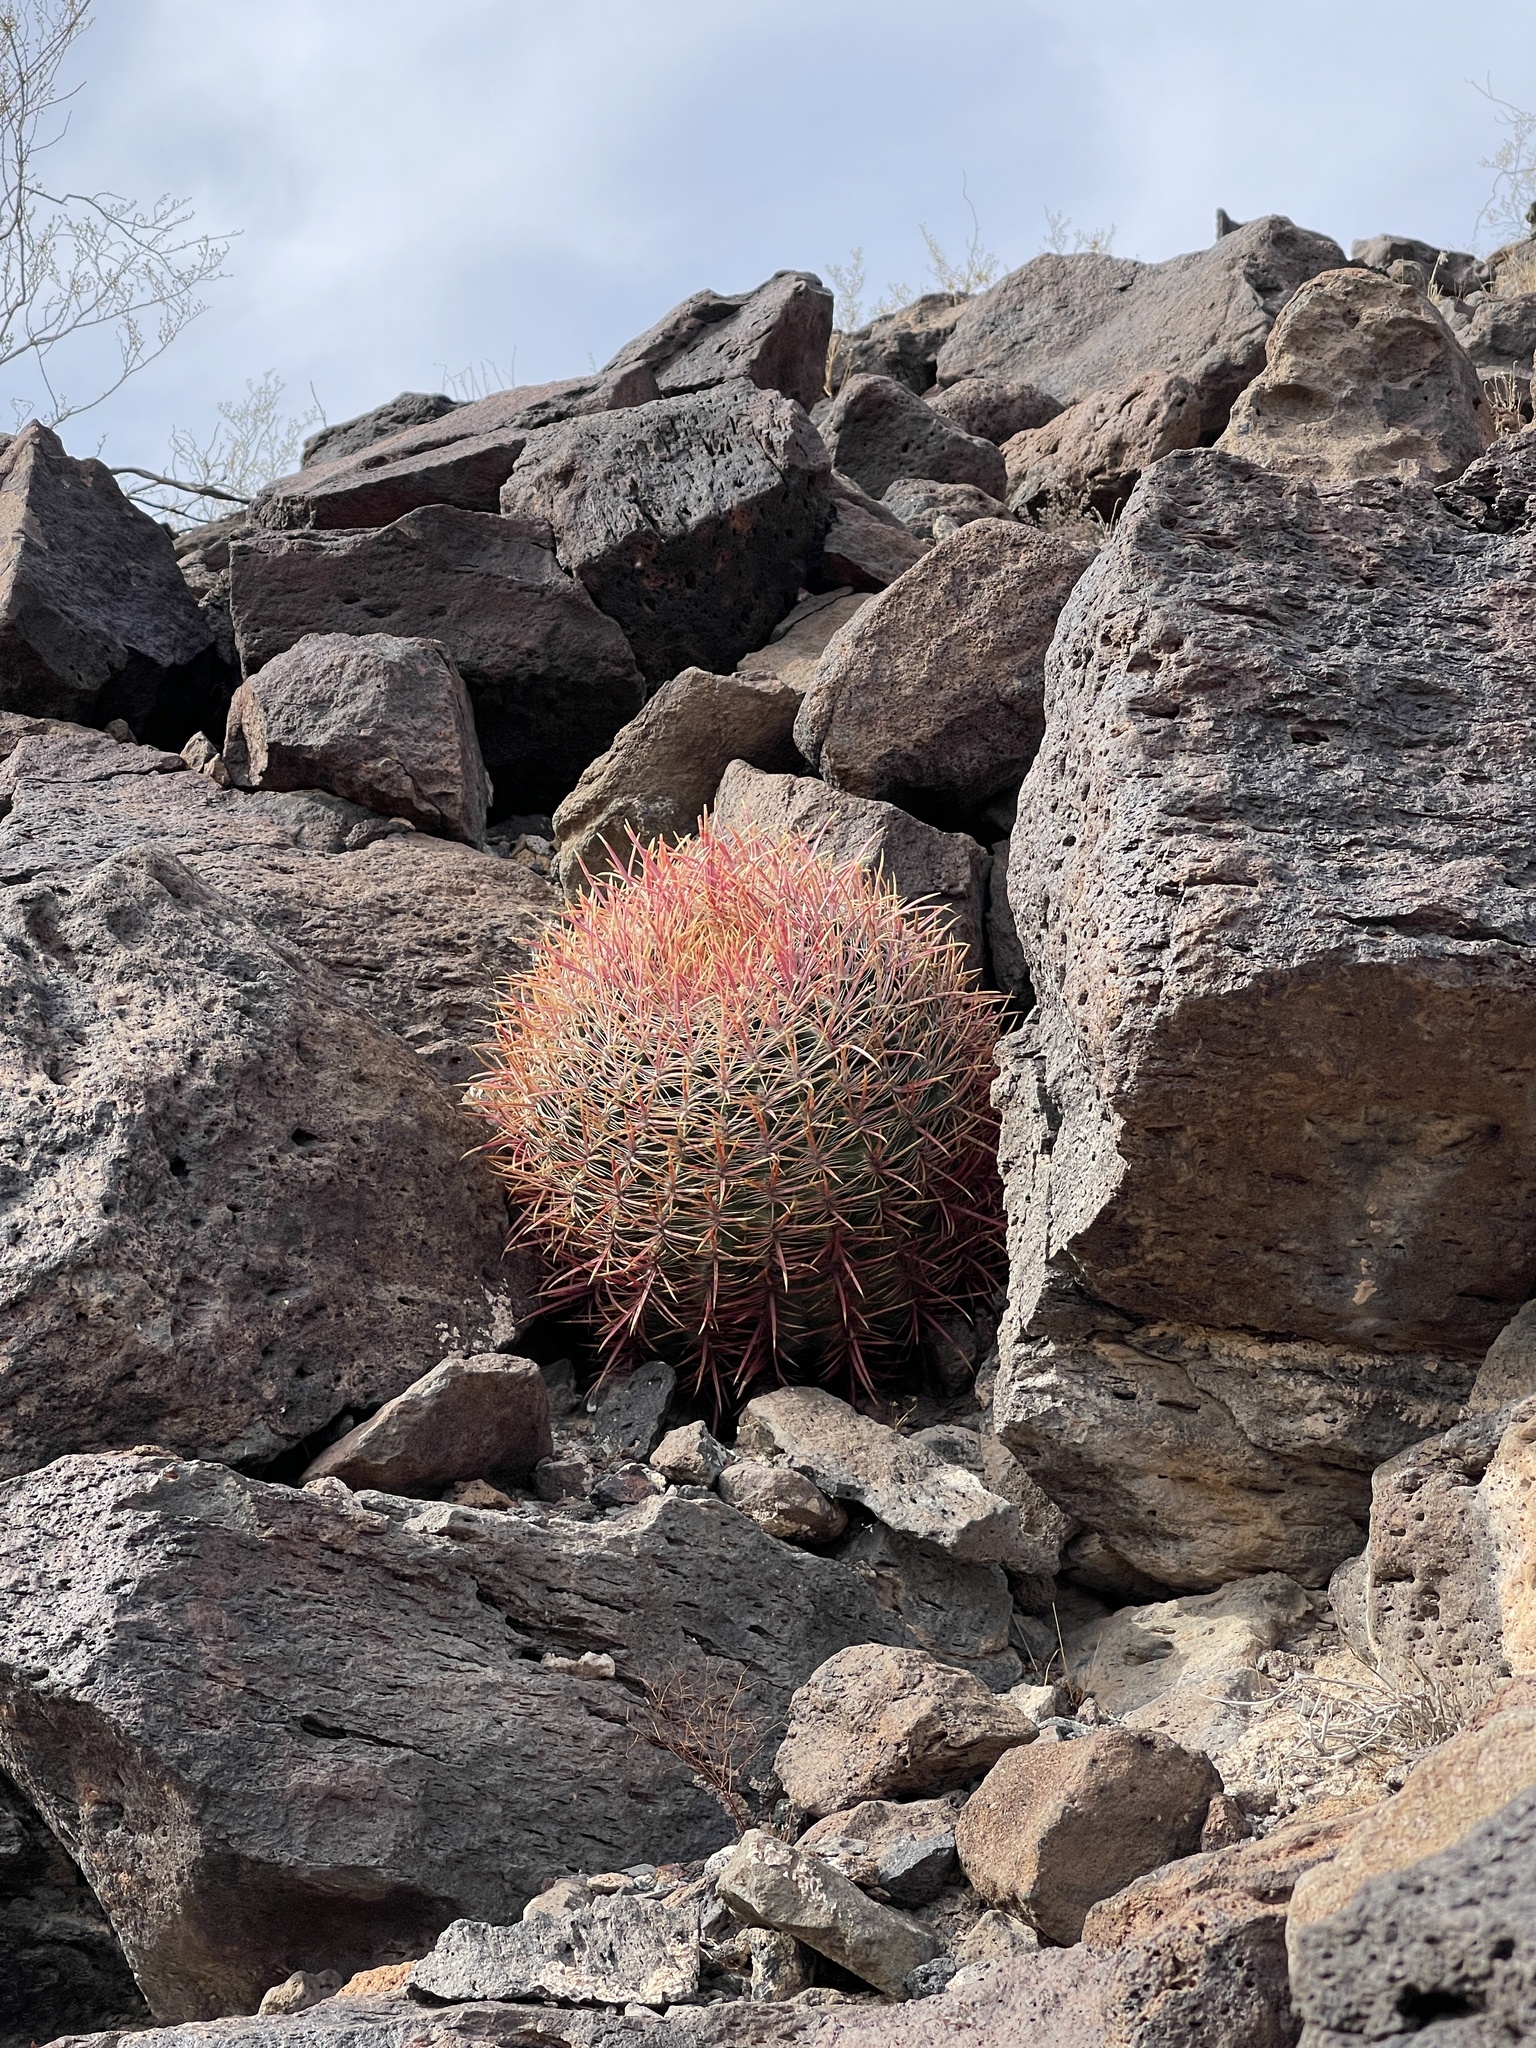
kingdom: Plantae
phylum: Tracheophyta
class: Magnoliopsida
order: Caryophyllales
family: Cactaceae
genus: Ferocactus
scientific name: Ferocactus cylindraceus
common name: California barrel cactus
